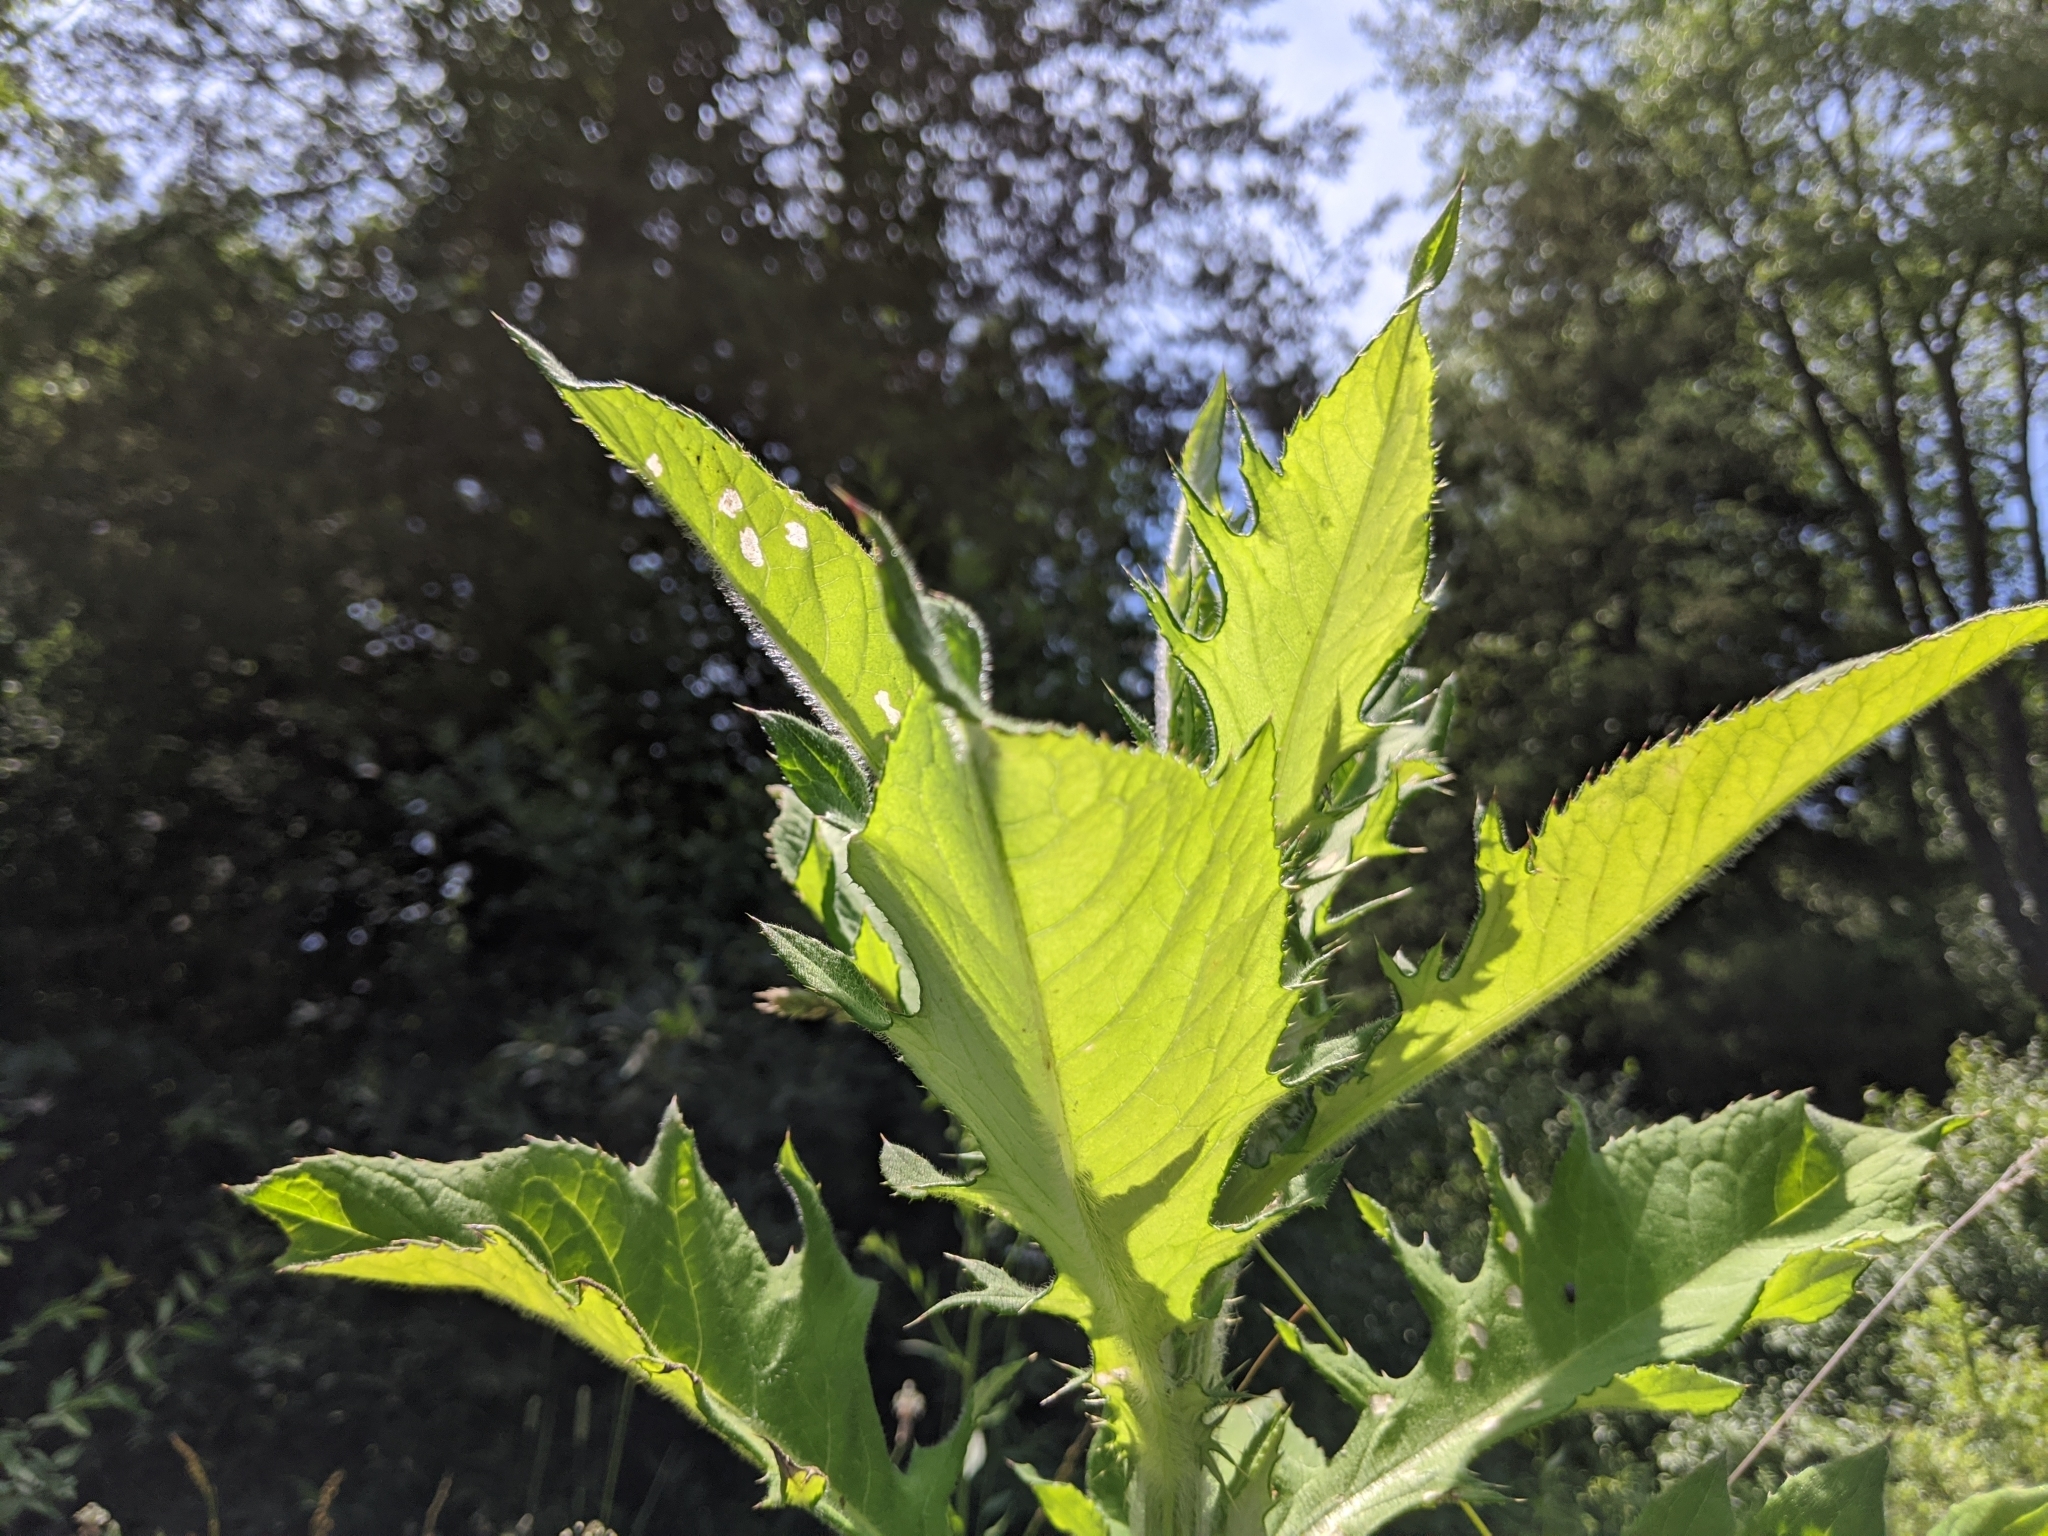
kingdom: Plantae
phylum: Tracheophyta
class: Magnoliopsida
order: Asterales
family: Asteraceae
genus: Lactuca
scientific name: Lactuca biennis
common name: Blue wood lettuce
